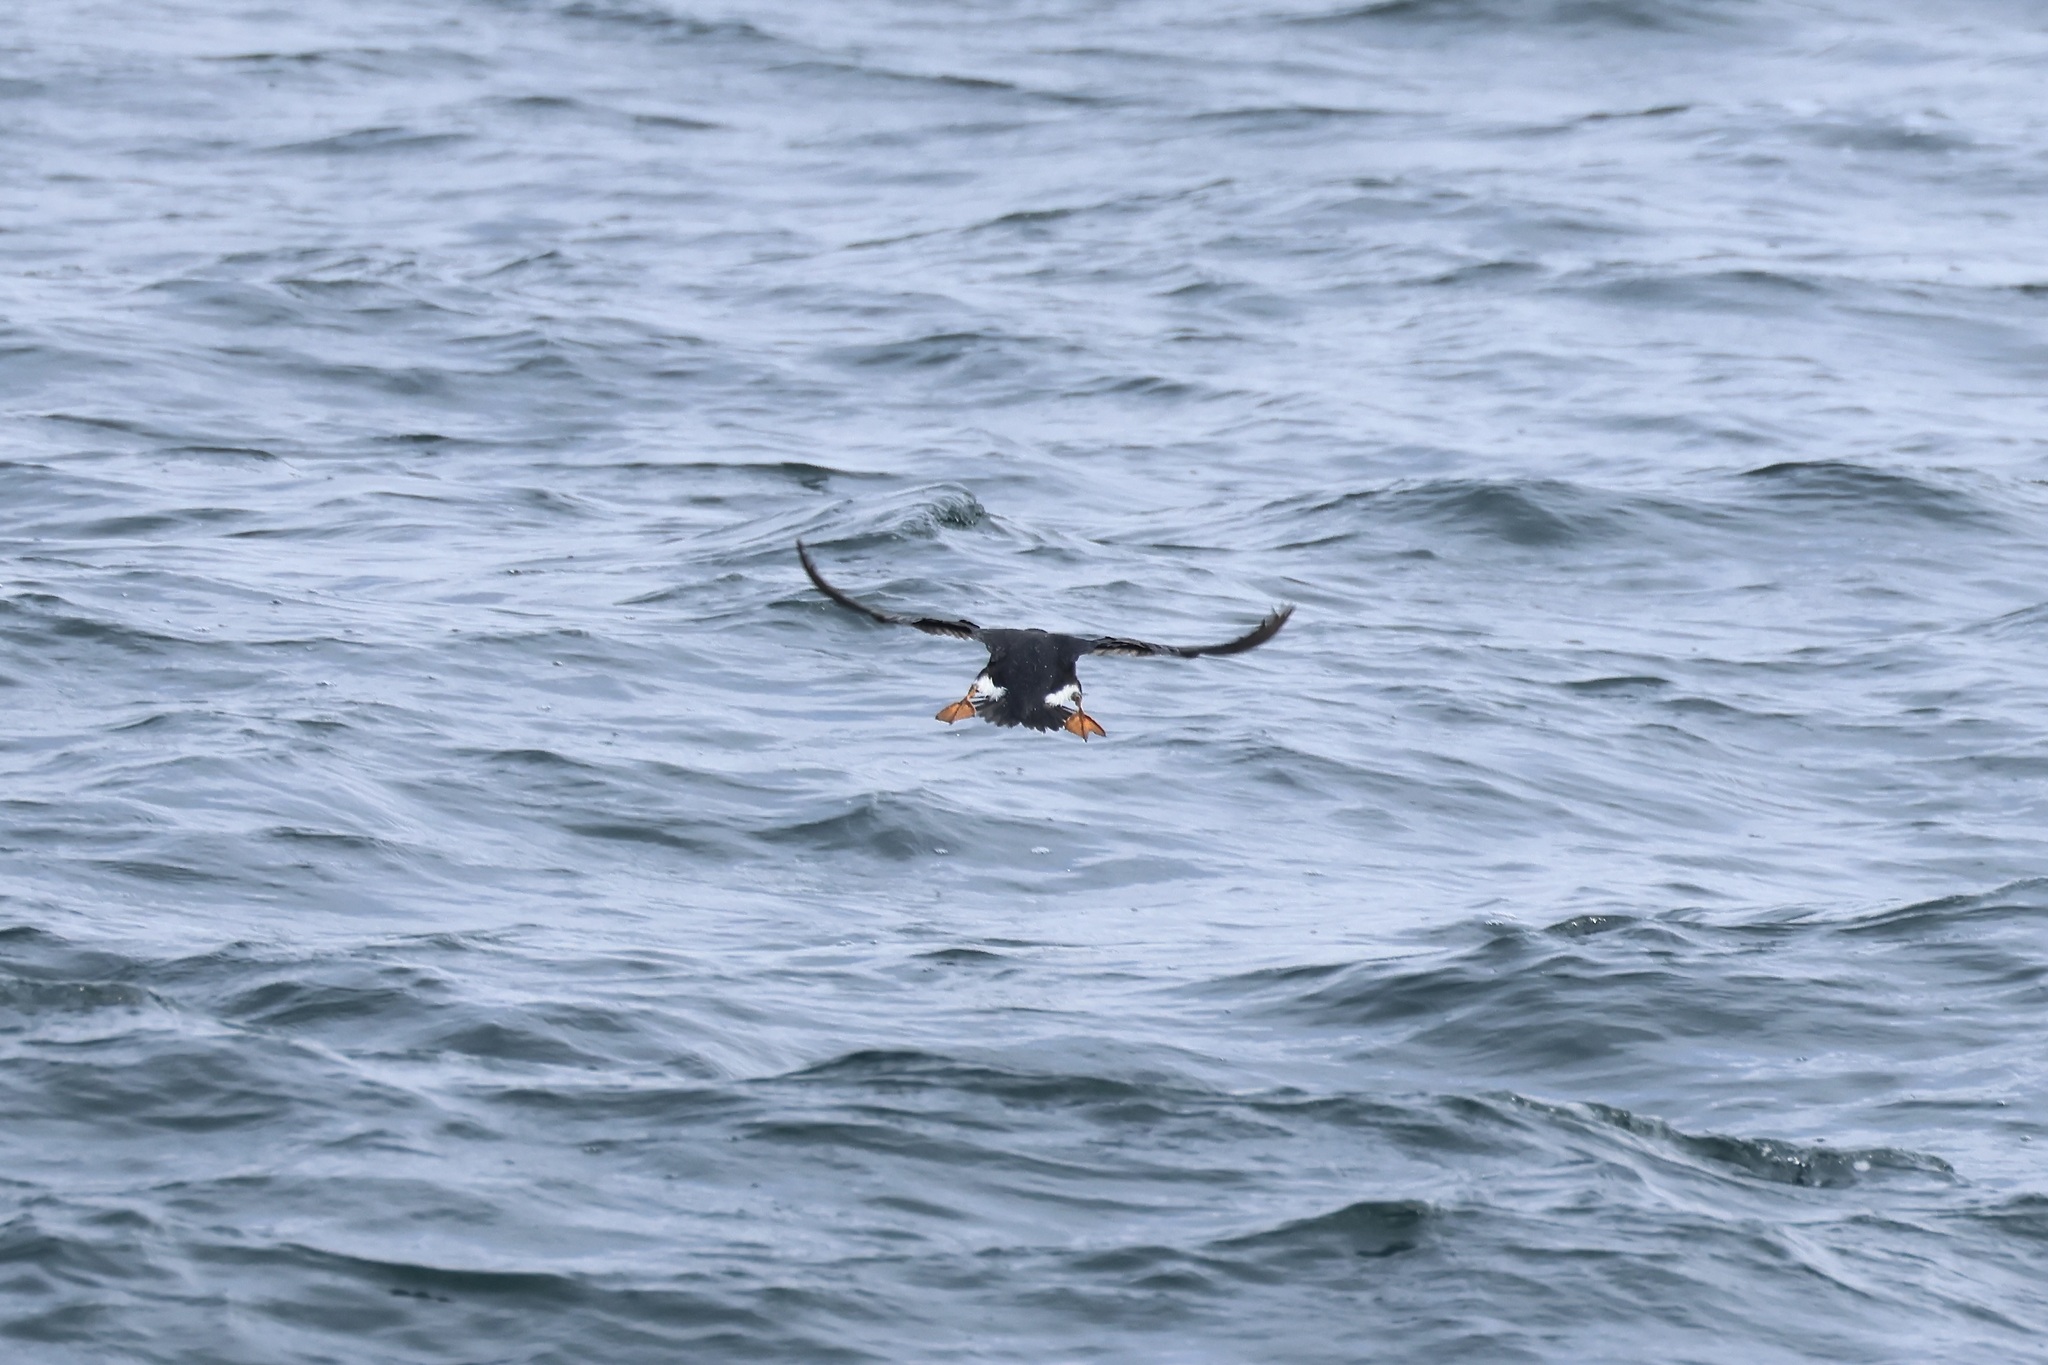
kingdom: Animalia
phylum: Chordata
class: Aves
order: Charadriiformes
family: Alcidae
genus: Fratercula
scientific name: Fratercula arctica
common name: Atlantic puffin
